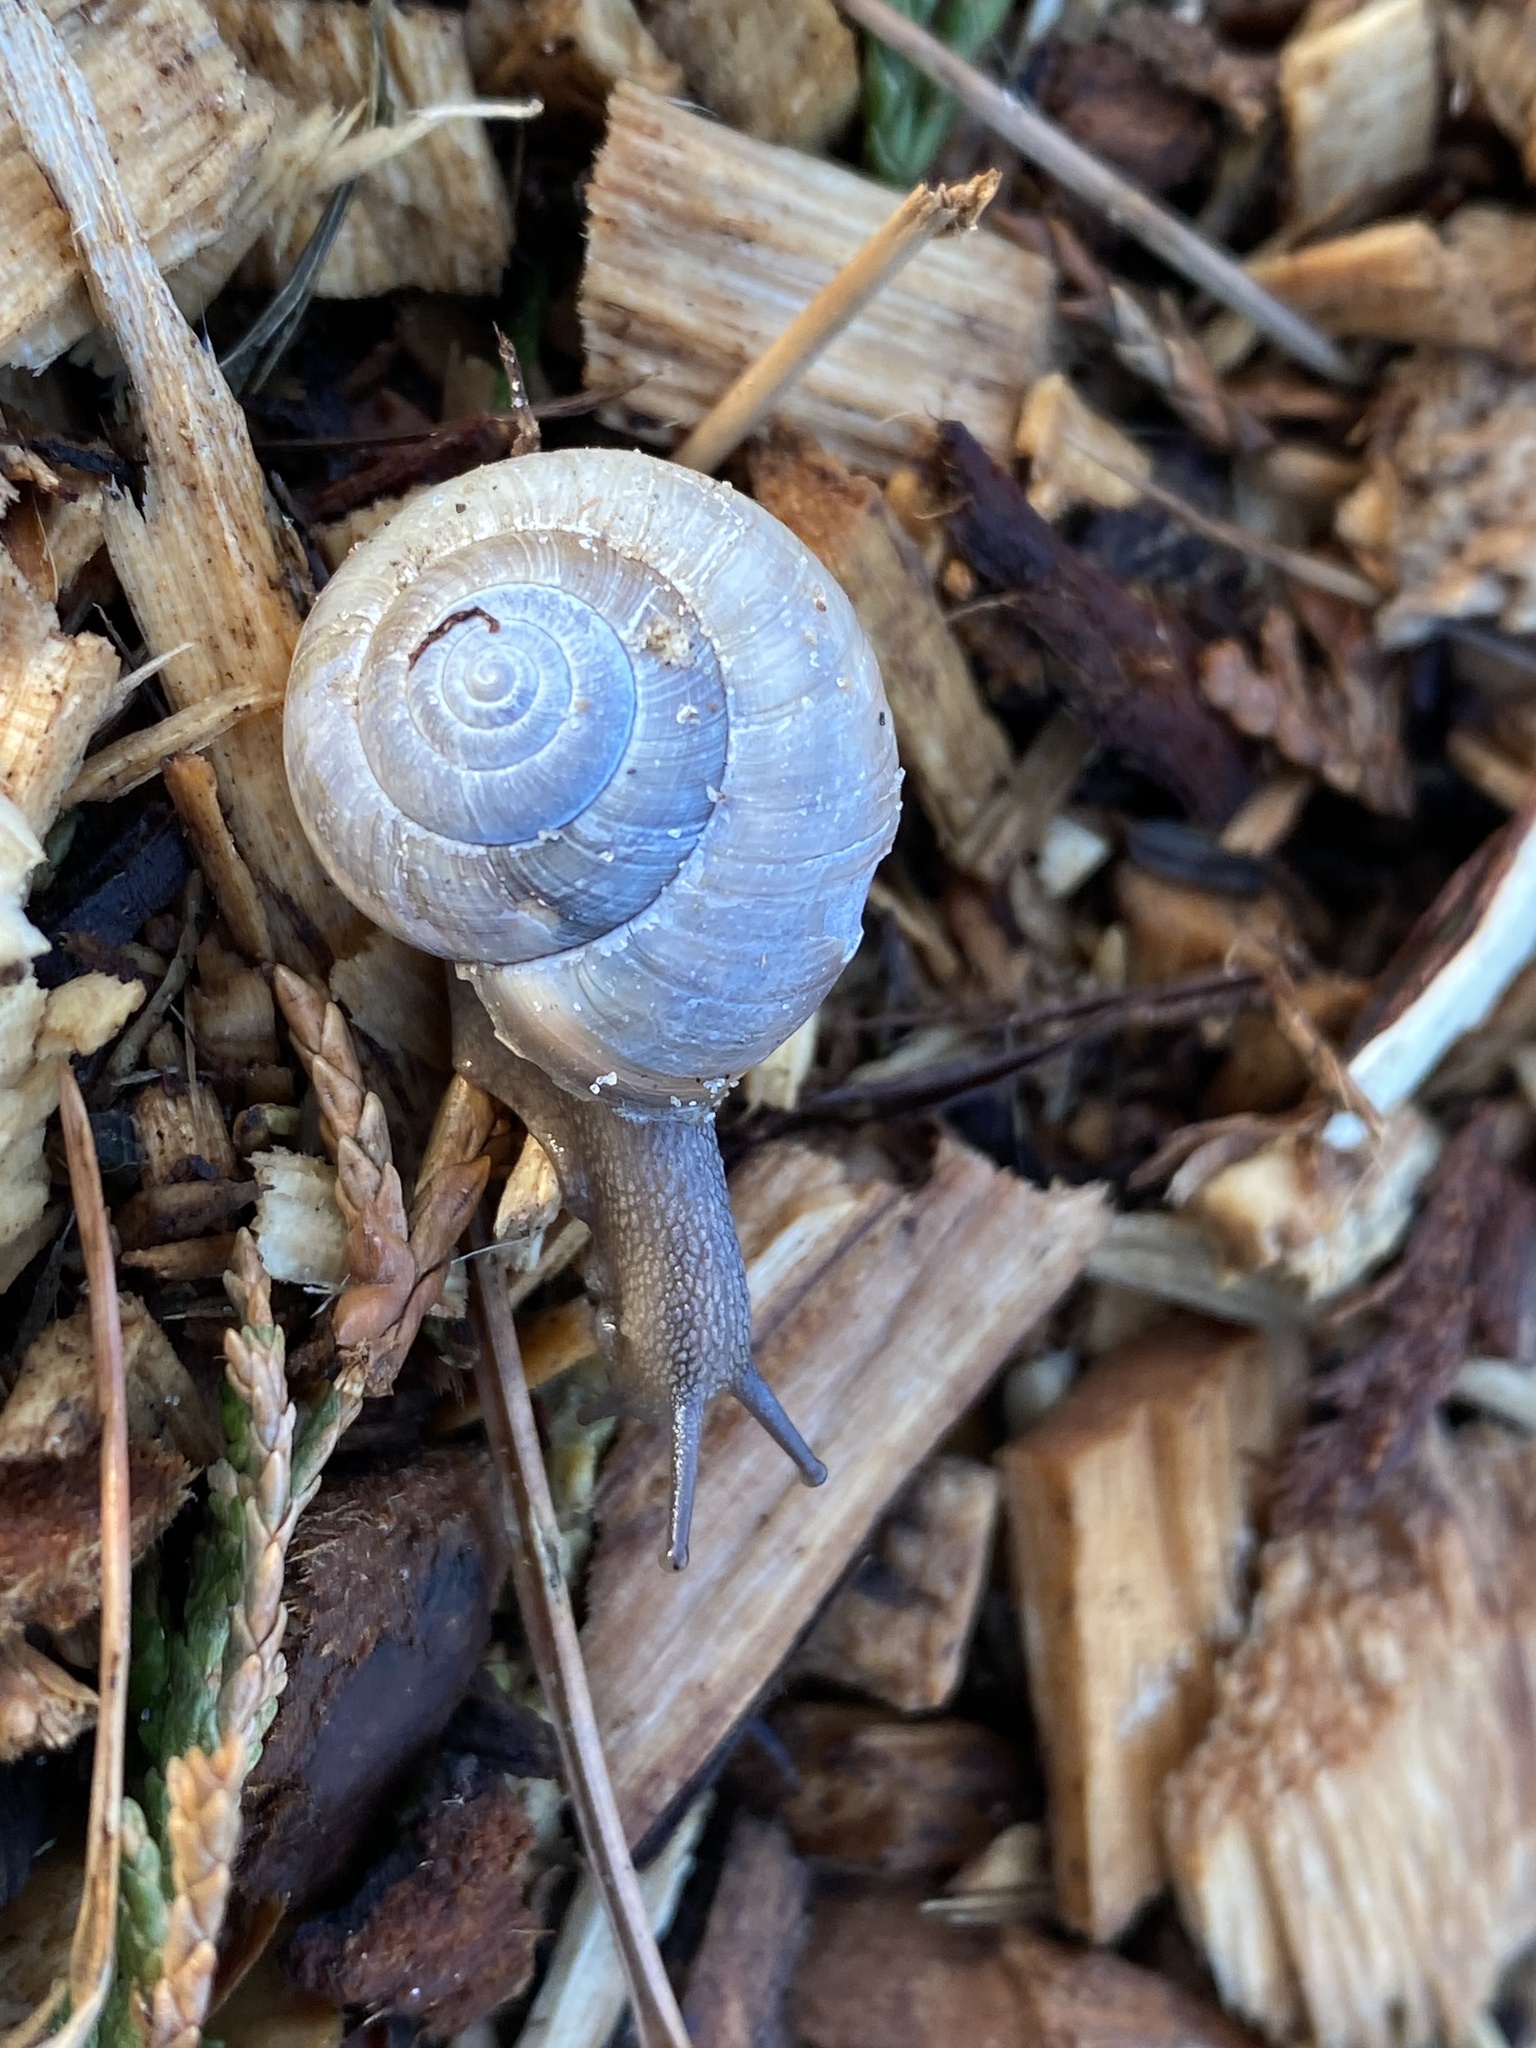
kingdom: Animalia
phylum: Mollusca
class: Gastropoda
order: Stylommatophora
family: Hygromiidae
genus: Monacha
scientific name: Monacha cantiana
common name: Kentish snail
